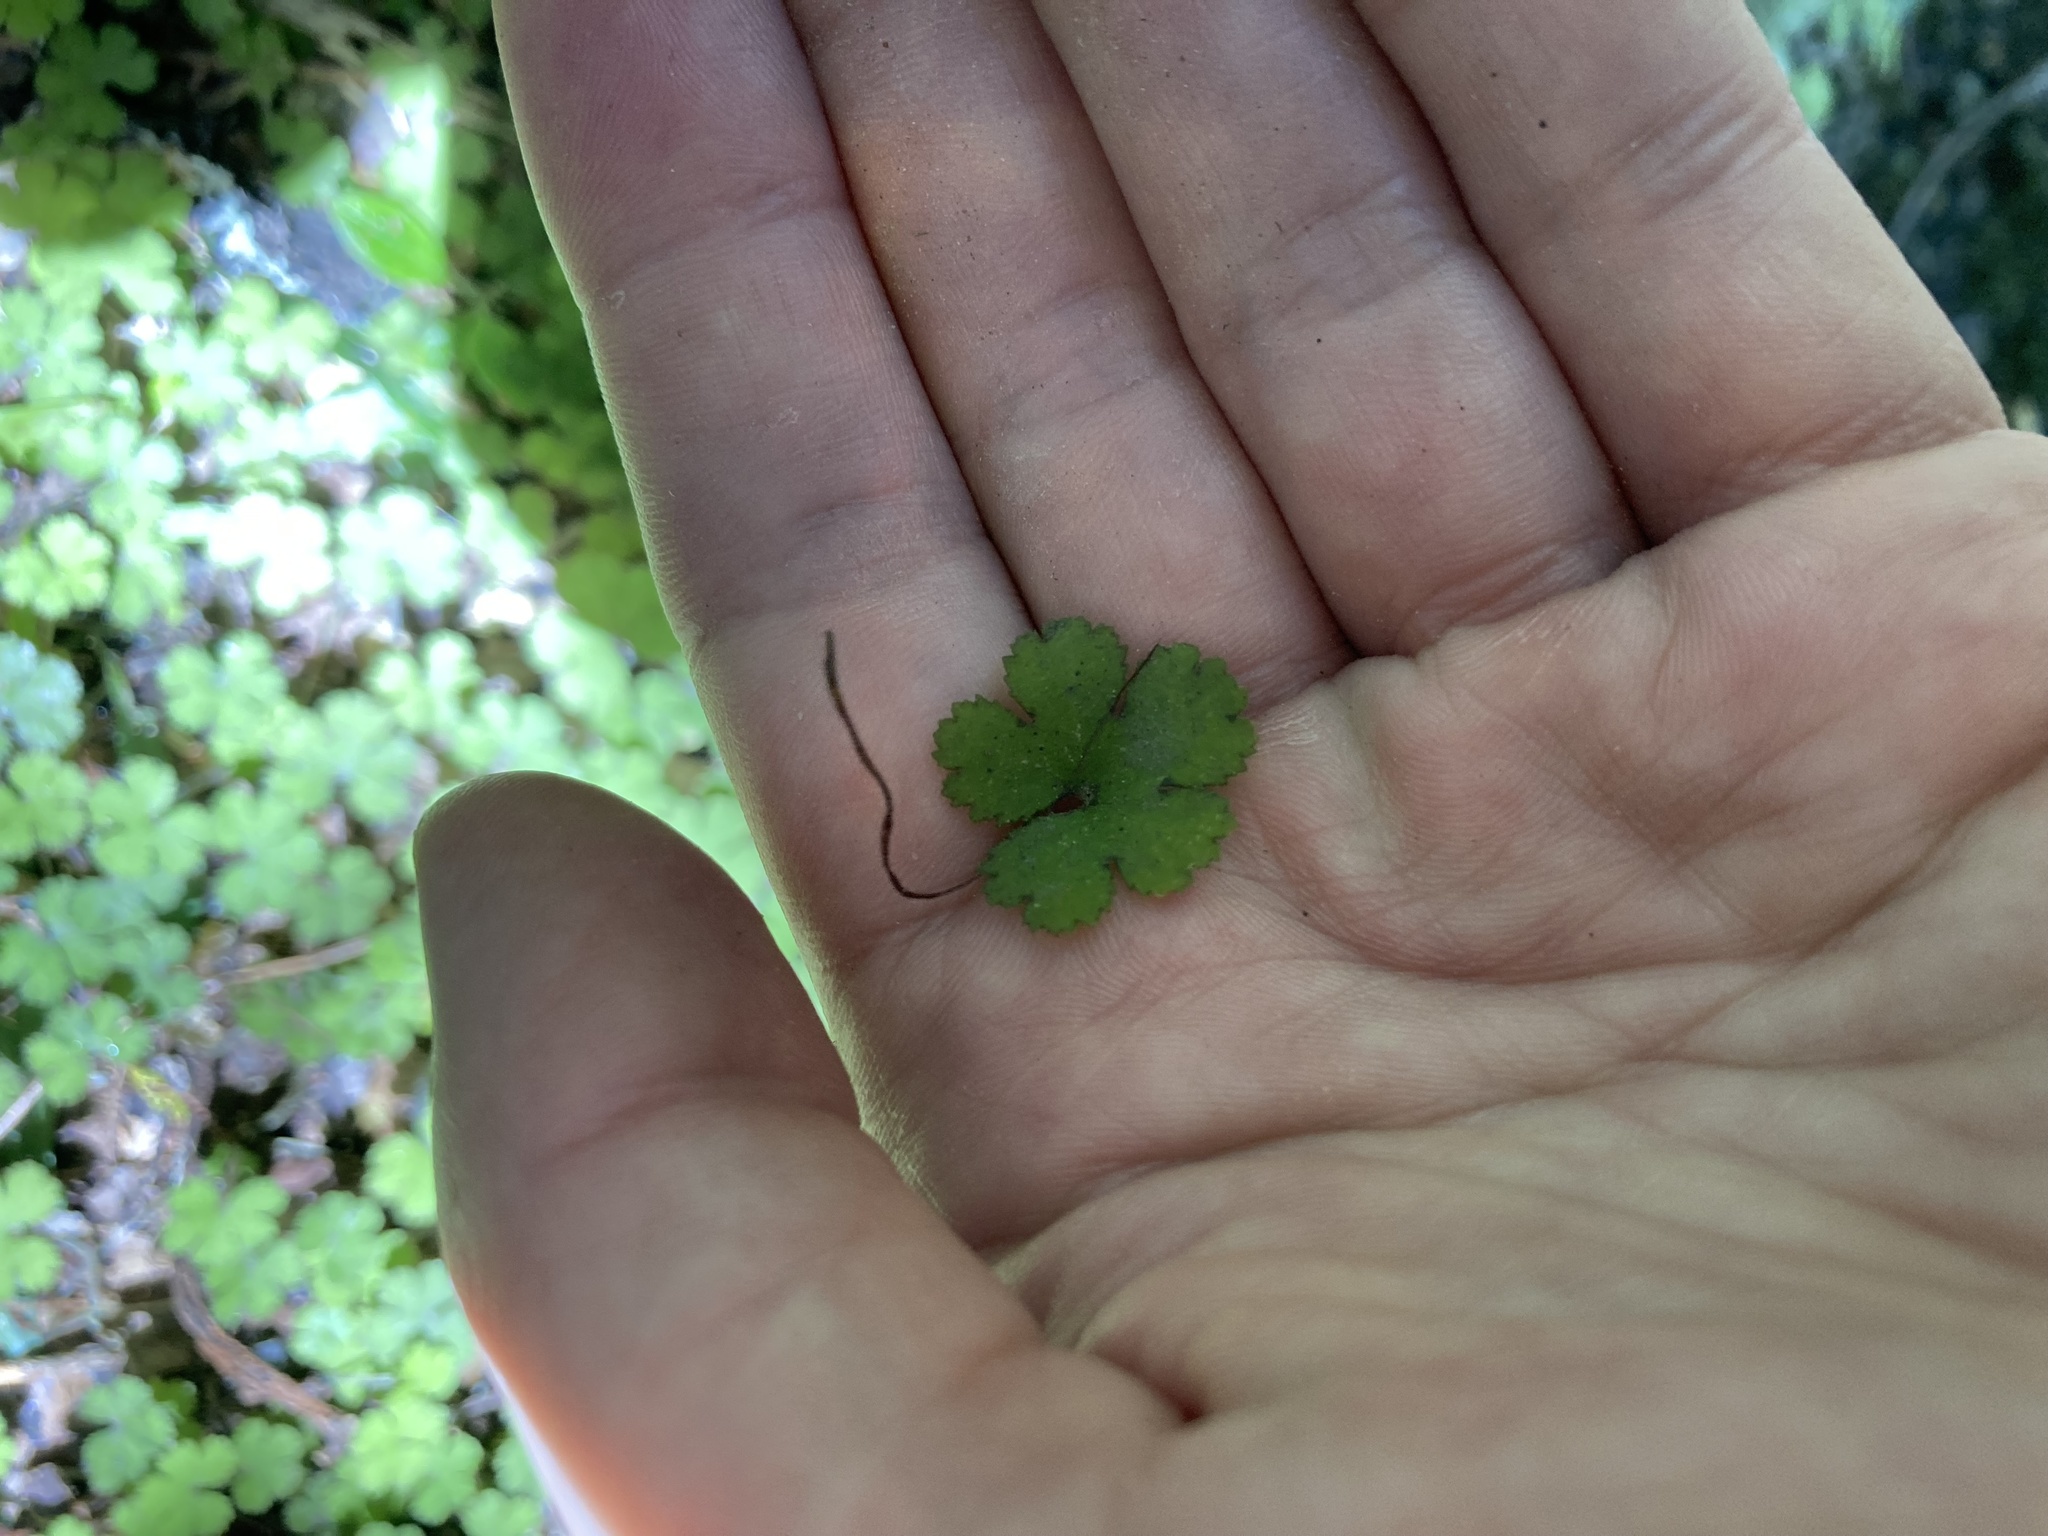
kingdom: Plantae
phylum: Tracheophyta
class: Magnoliopsida
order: Apiales
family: Araliaceae
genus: Hydrocotyle
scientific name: Hydrocotyle elongata
